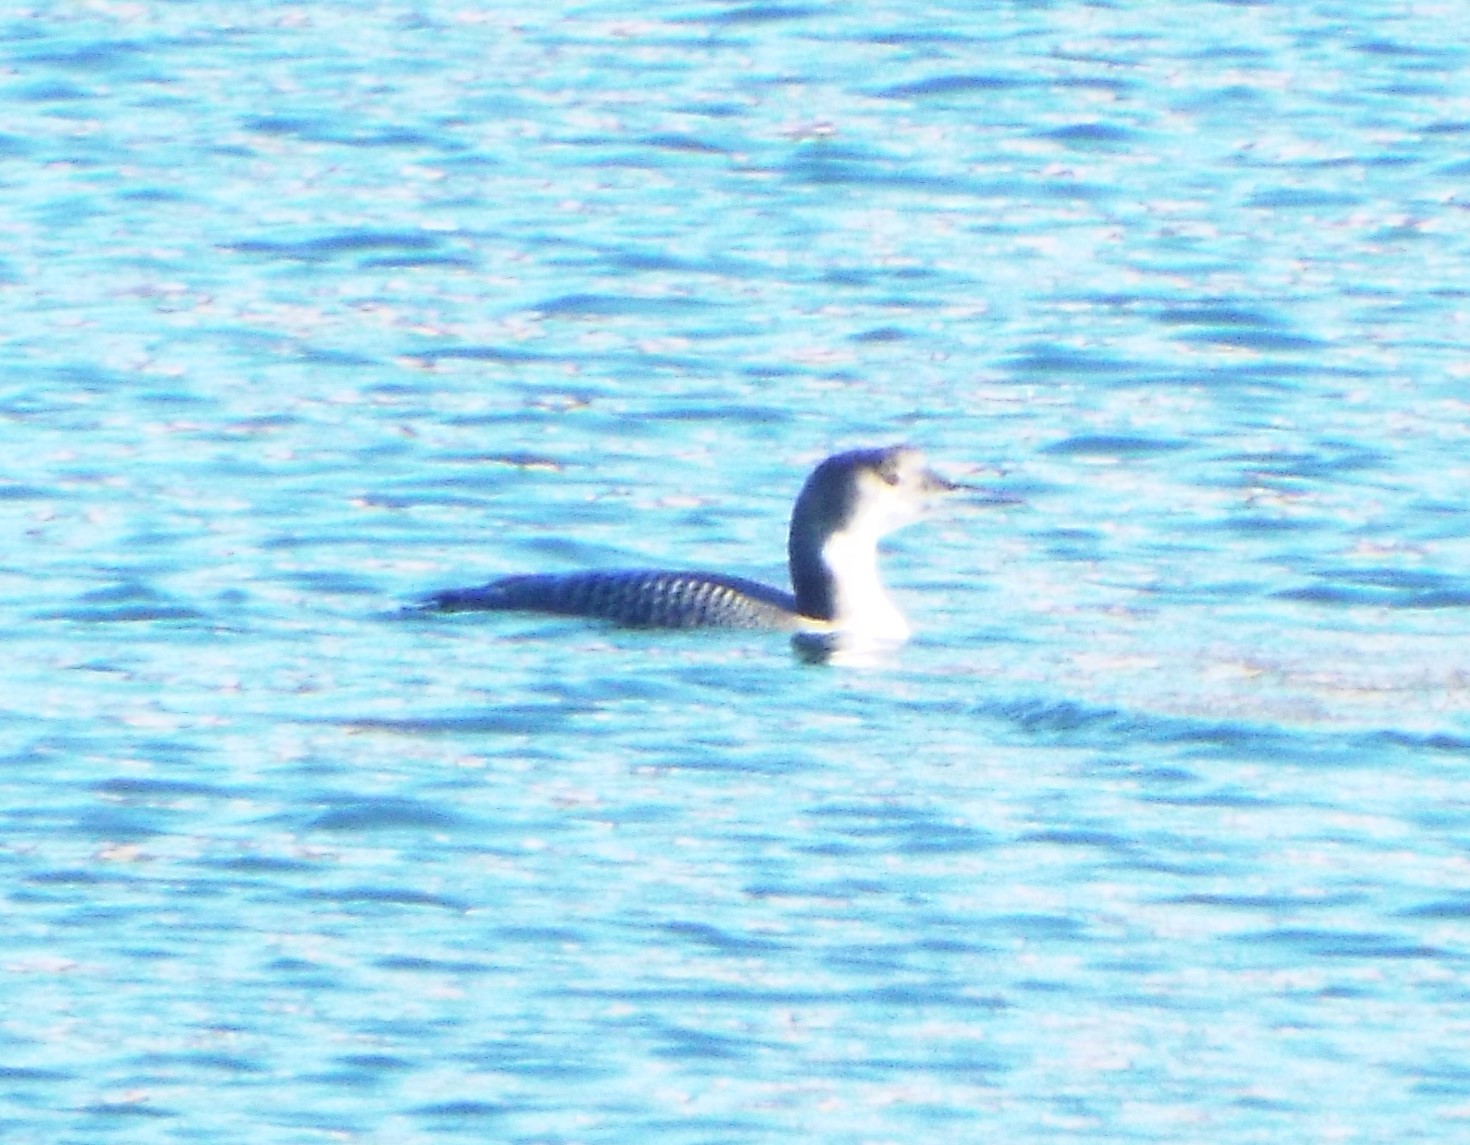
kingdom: Animalia
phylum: Chordata
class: Aves
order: Gaviiformes
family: Gaviidae
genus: Gavia
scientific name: Gavia immer
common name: Common loon
